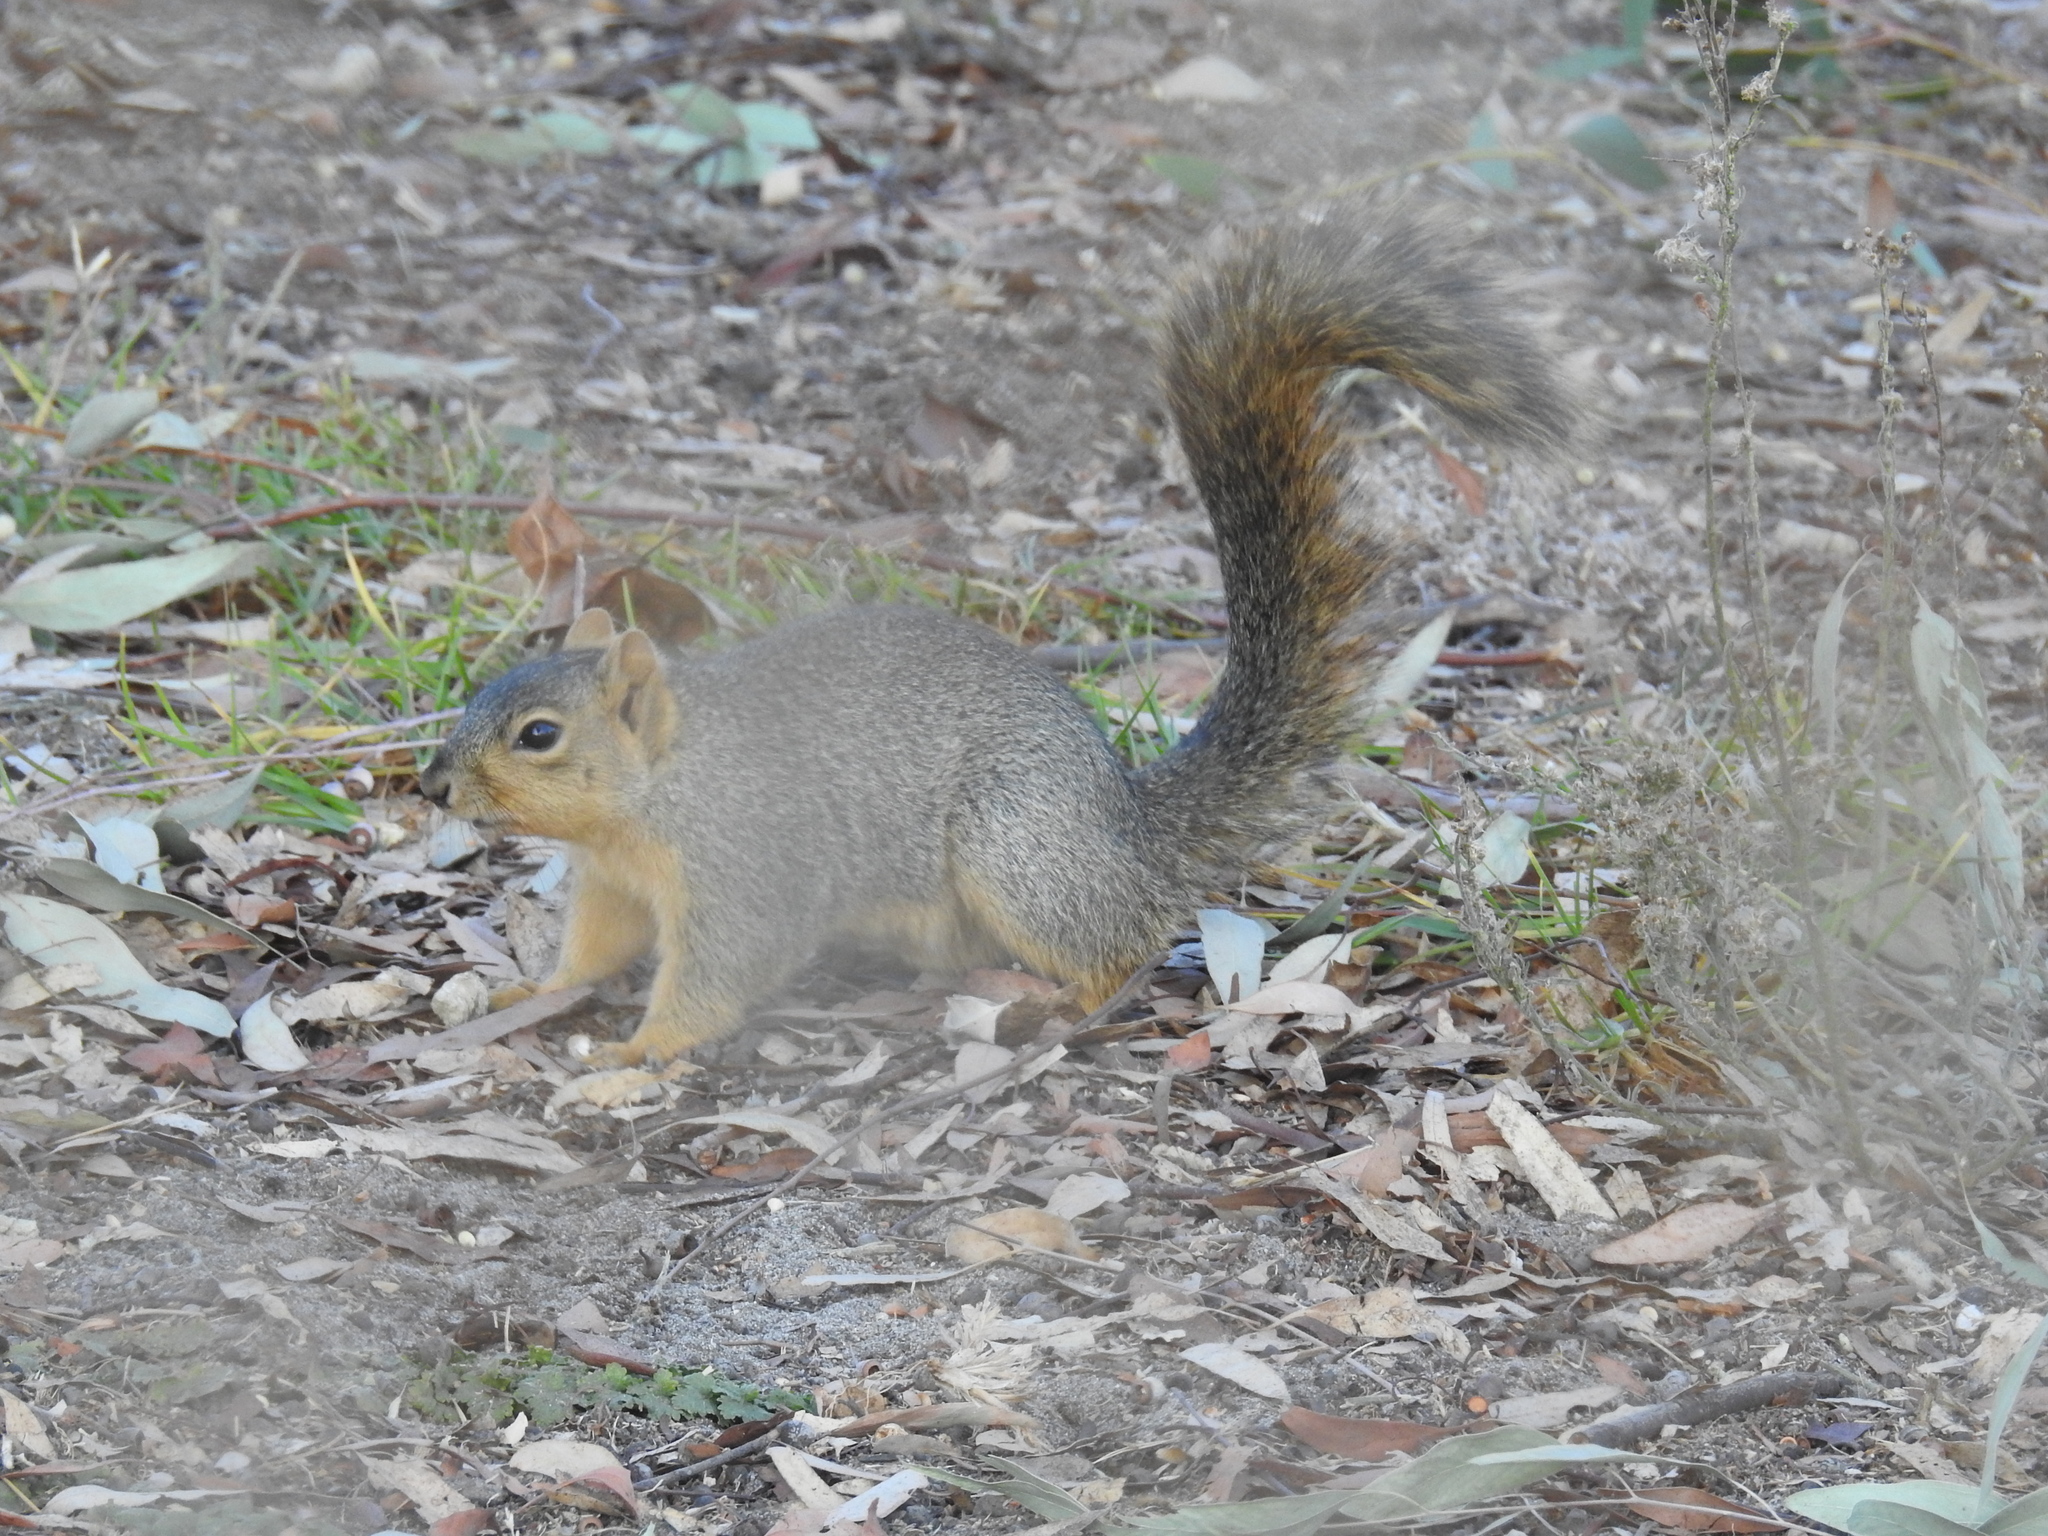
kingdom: Animalia
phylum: Chordata
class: Mammalia
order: Rodentia
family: Sciuridae
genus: Sciurus
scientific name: Sciurus niger
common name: Fox squirrel
